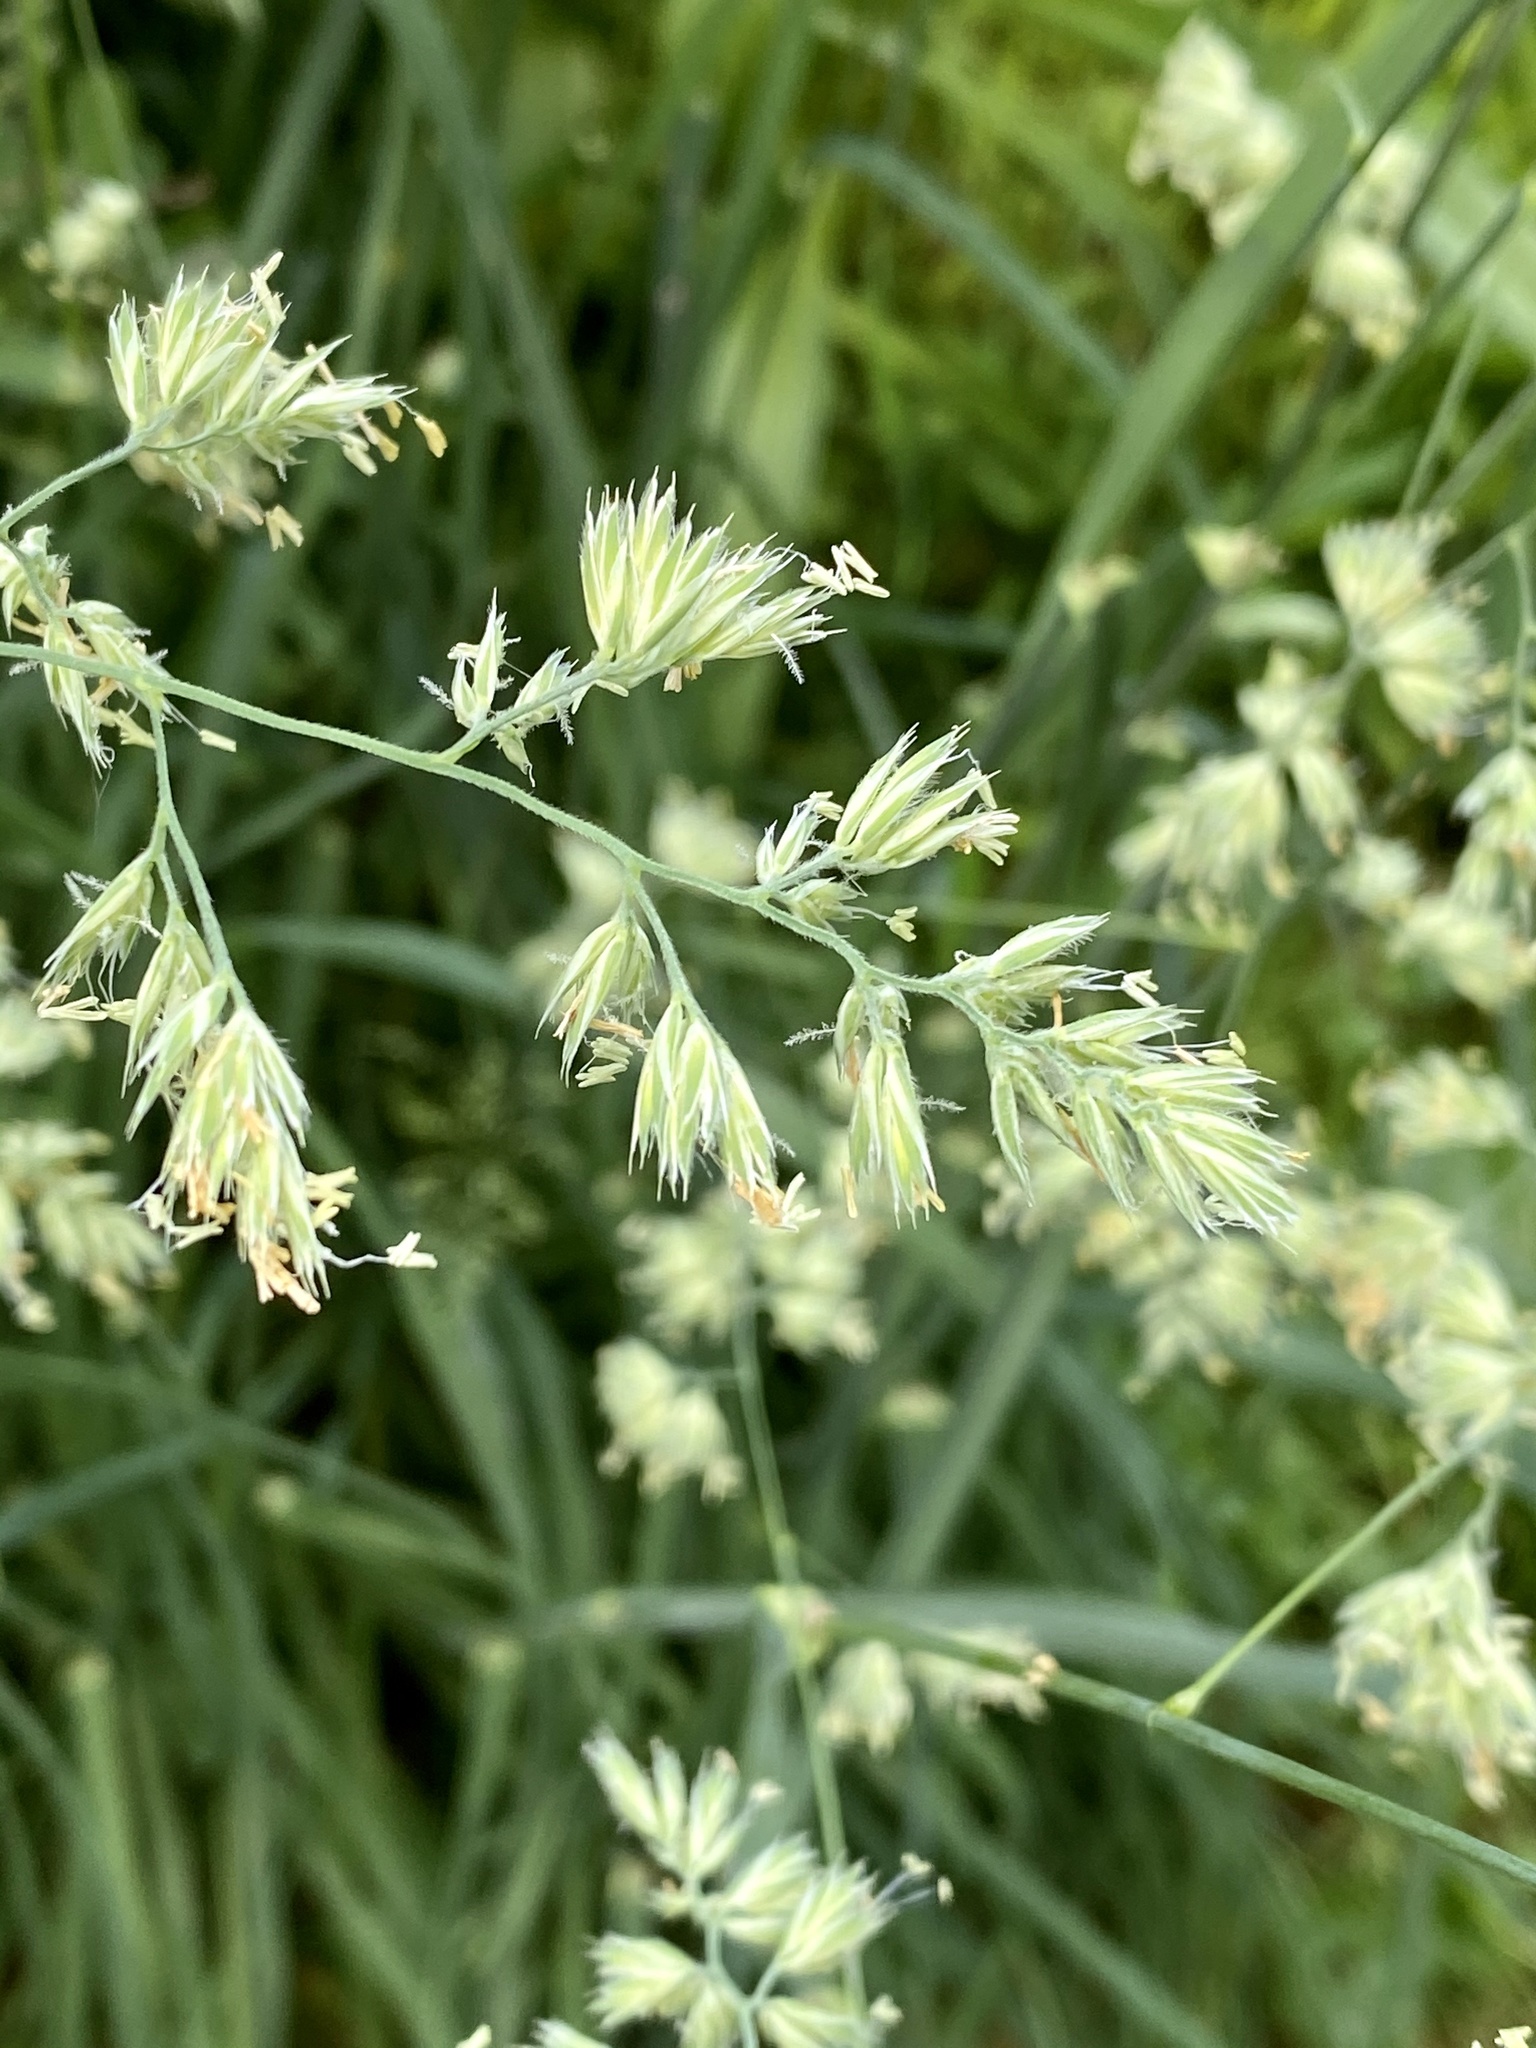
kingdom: Plantae
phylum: Tracheophyta
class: Liliopsida
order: Poales
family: Poaceae
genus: Dactylis
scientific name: Dactylis glomerata
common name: Orchardgrass
